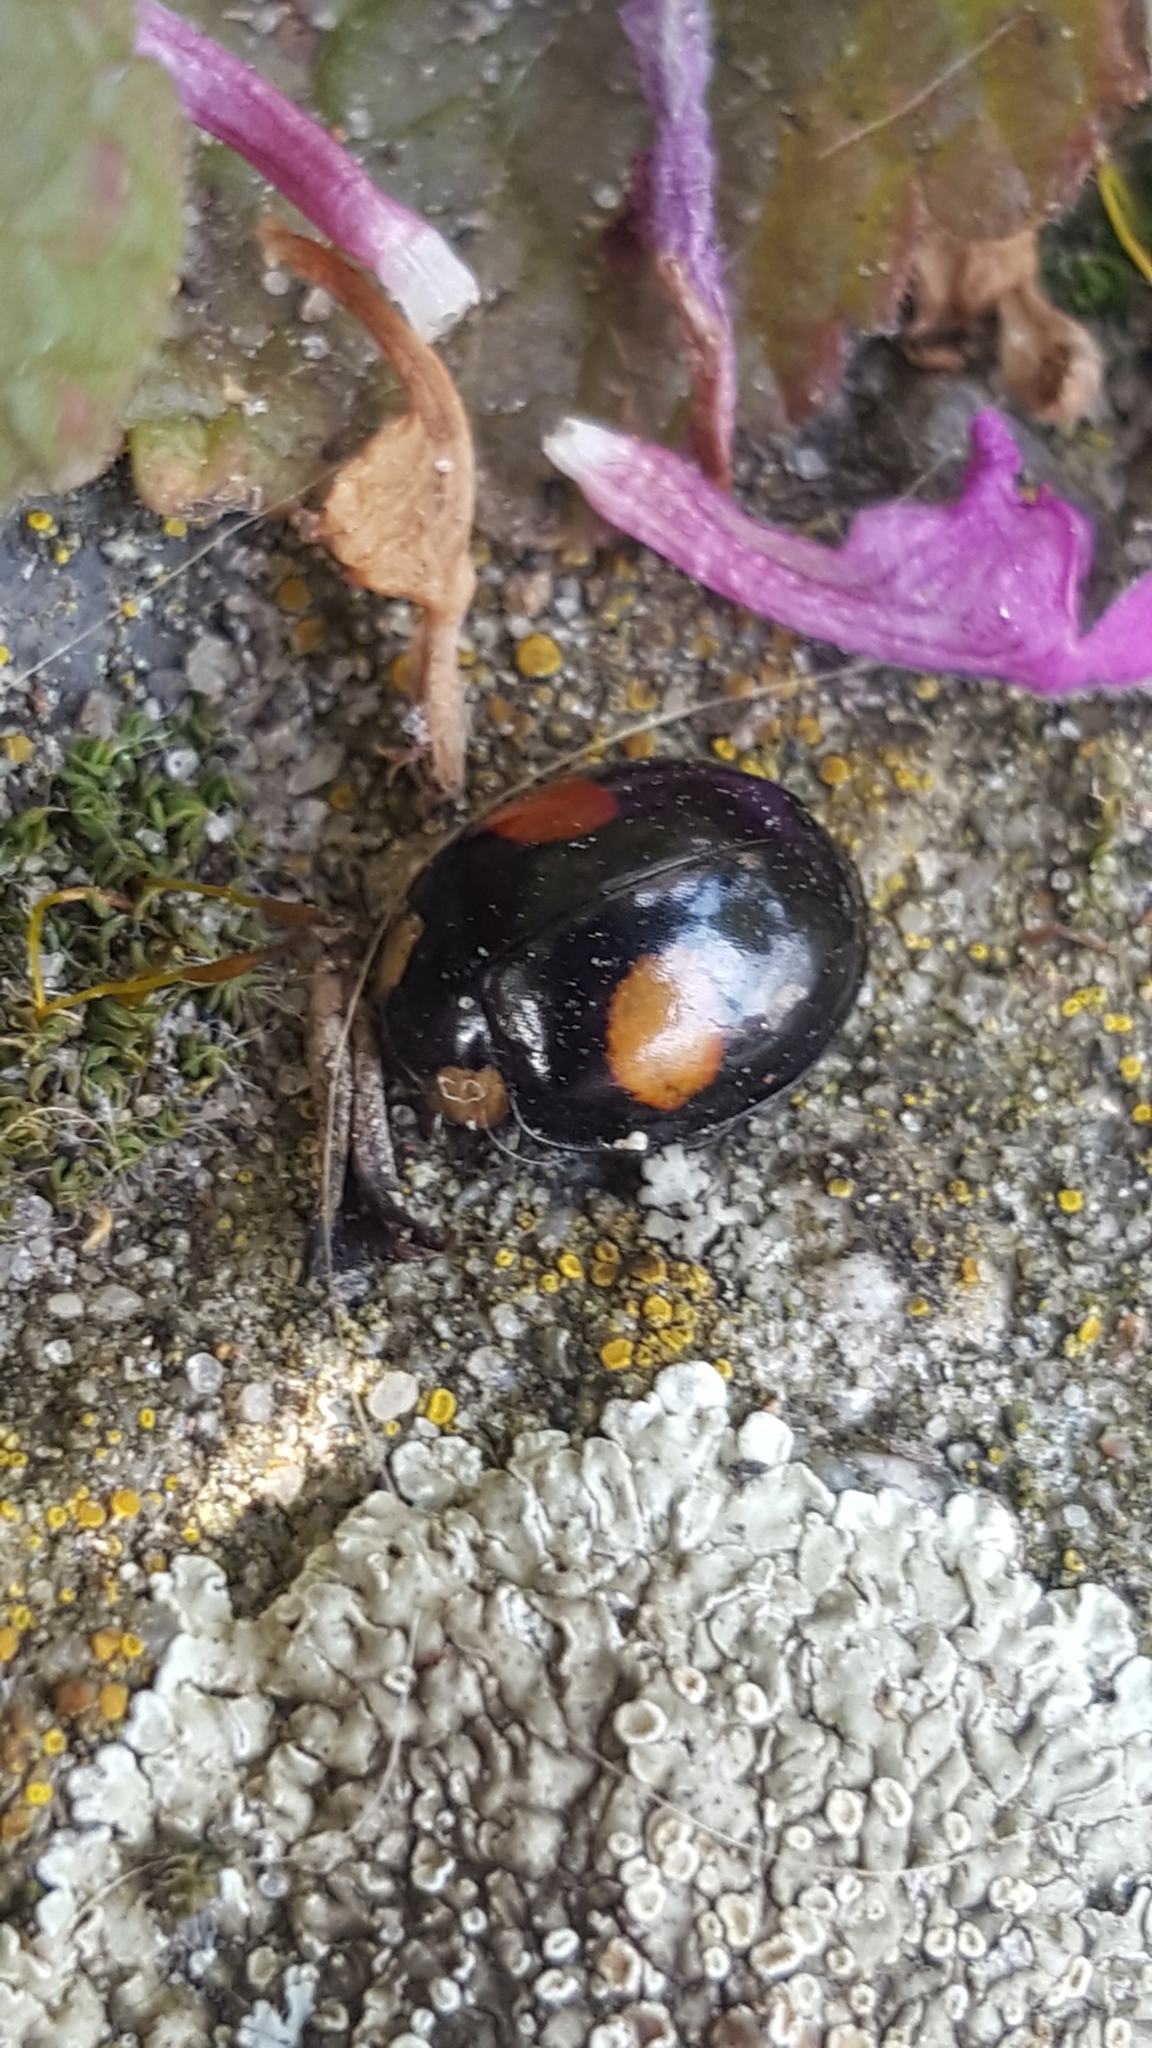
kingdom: Animalia
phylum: Arthropoda
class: Insecta
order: Coleoptera
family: Coccinellidae
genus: Harmonia
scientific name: Harmonia axyridis
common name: Harlequin ladybird
